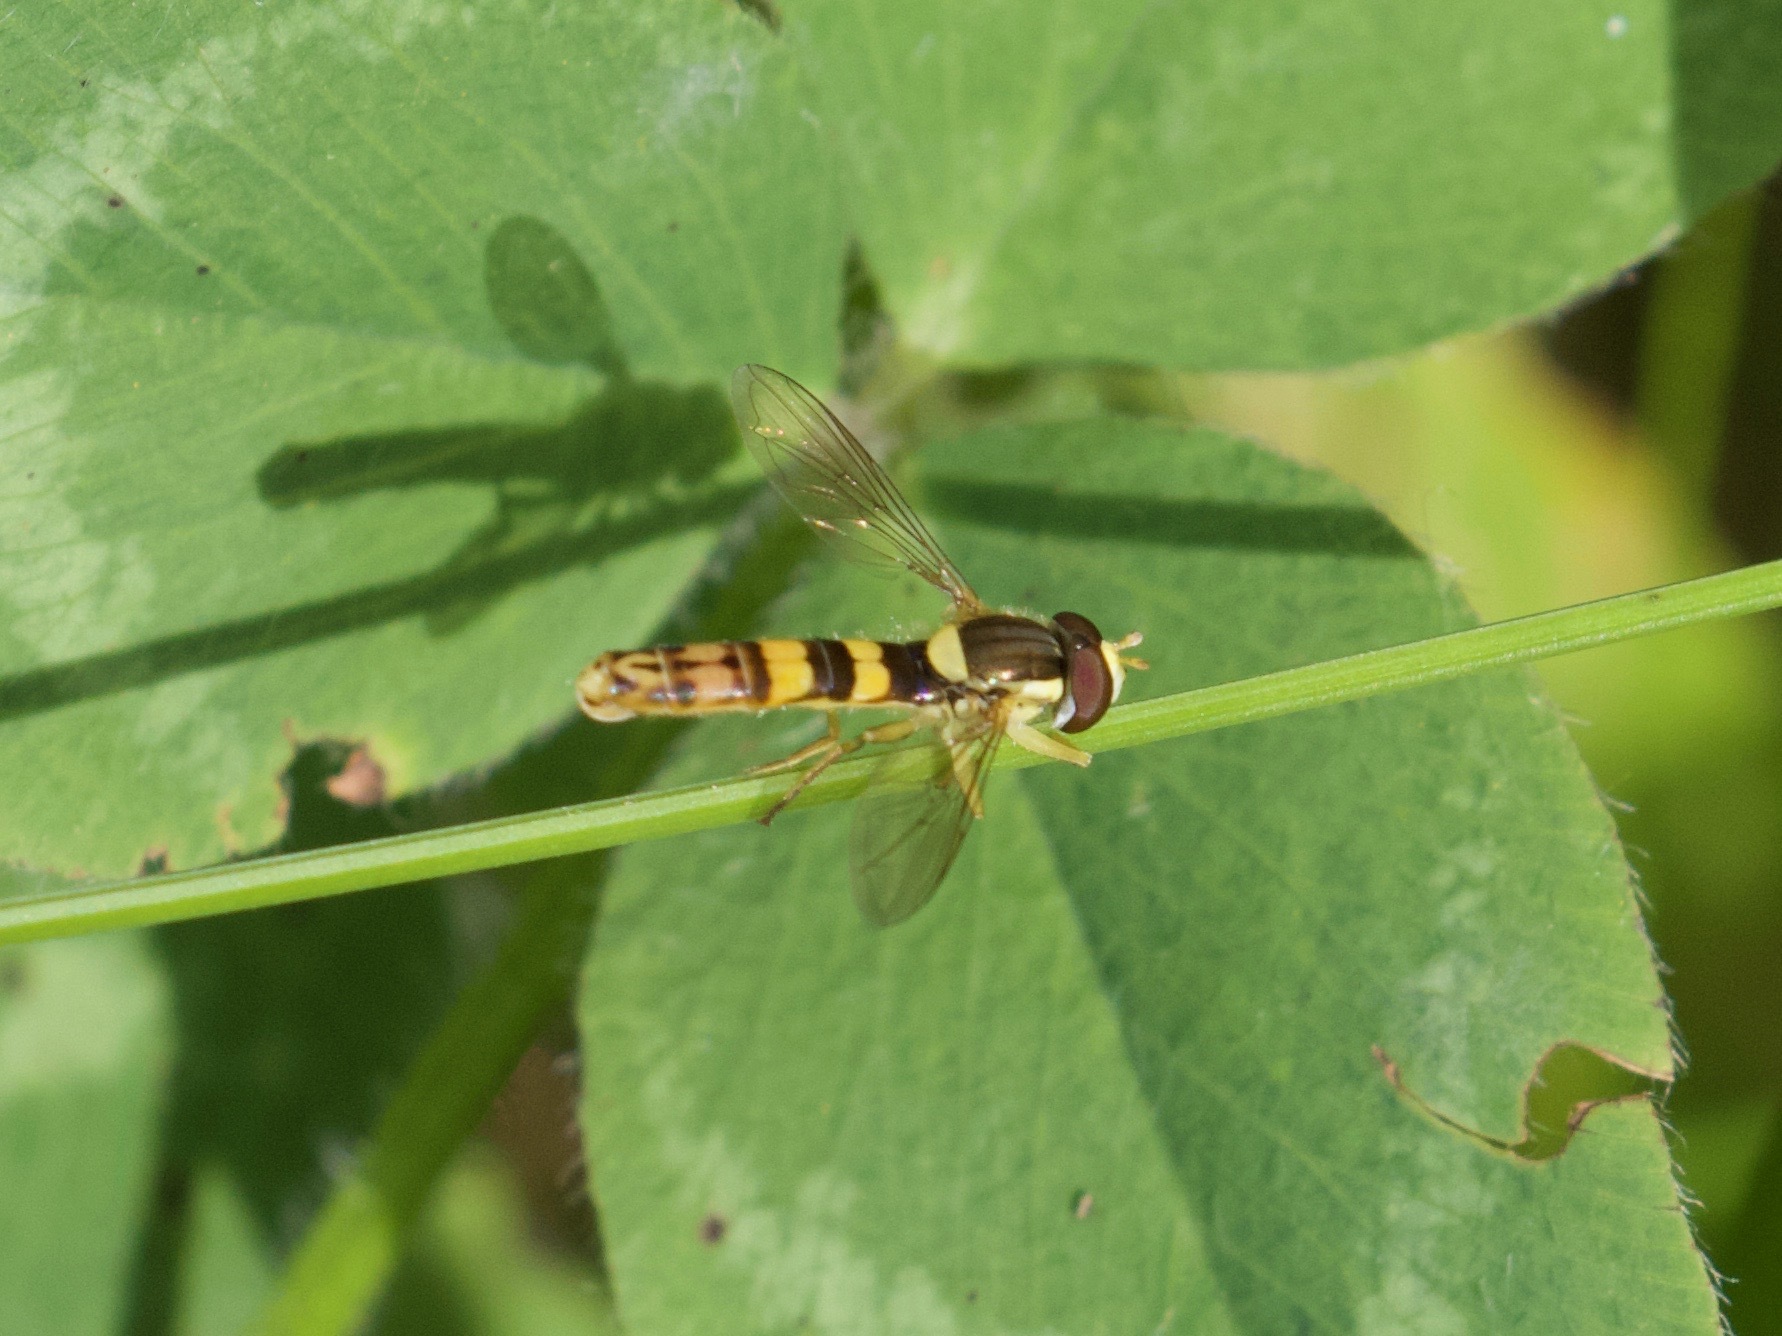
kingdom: Animalia
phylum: Arthropoda
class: Insecta
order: Diptera
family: Syrphidae
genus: Sphaerophoria
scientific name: Sphaerophoria scripta
